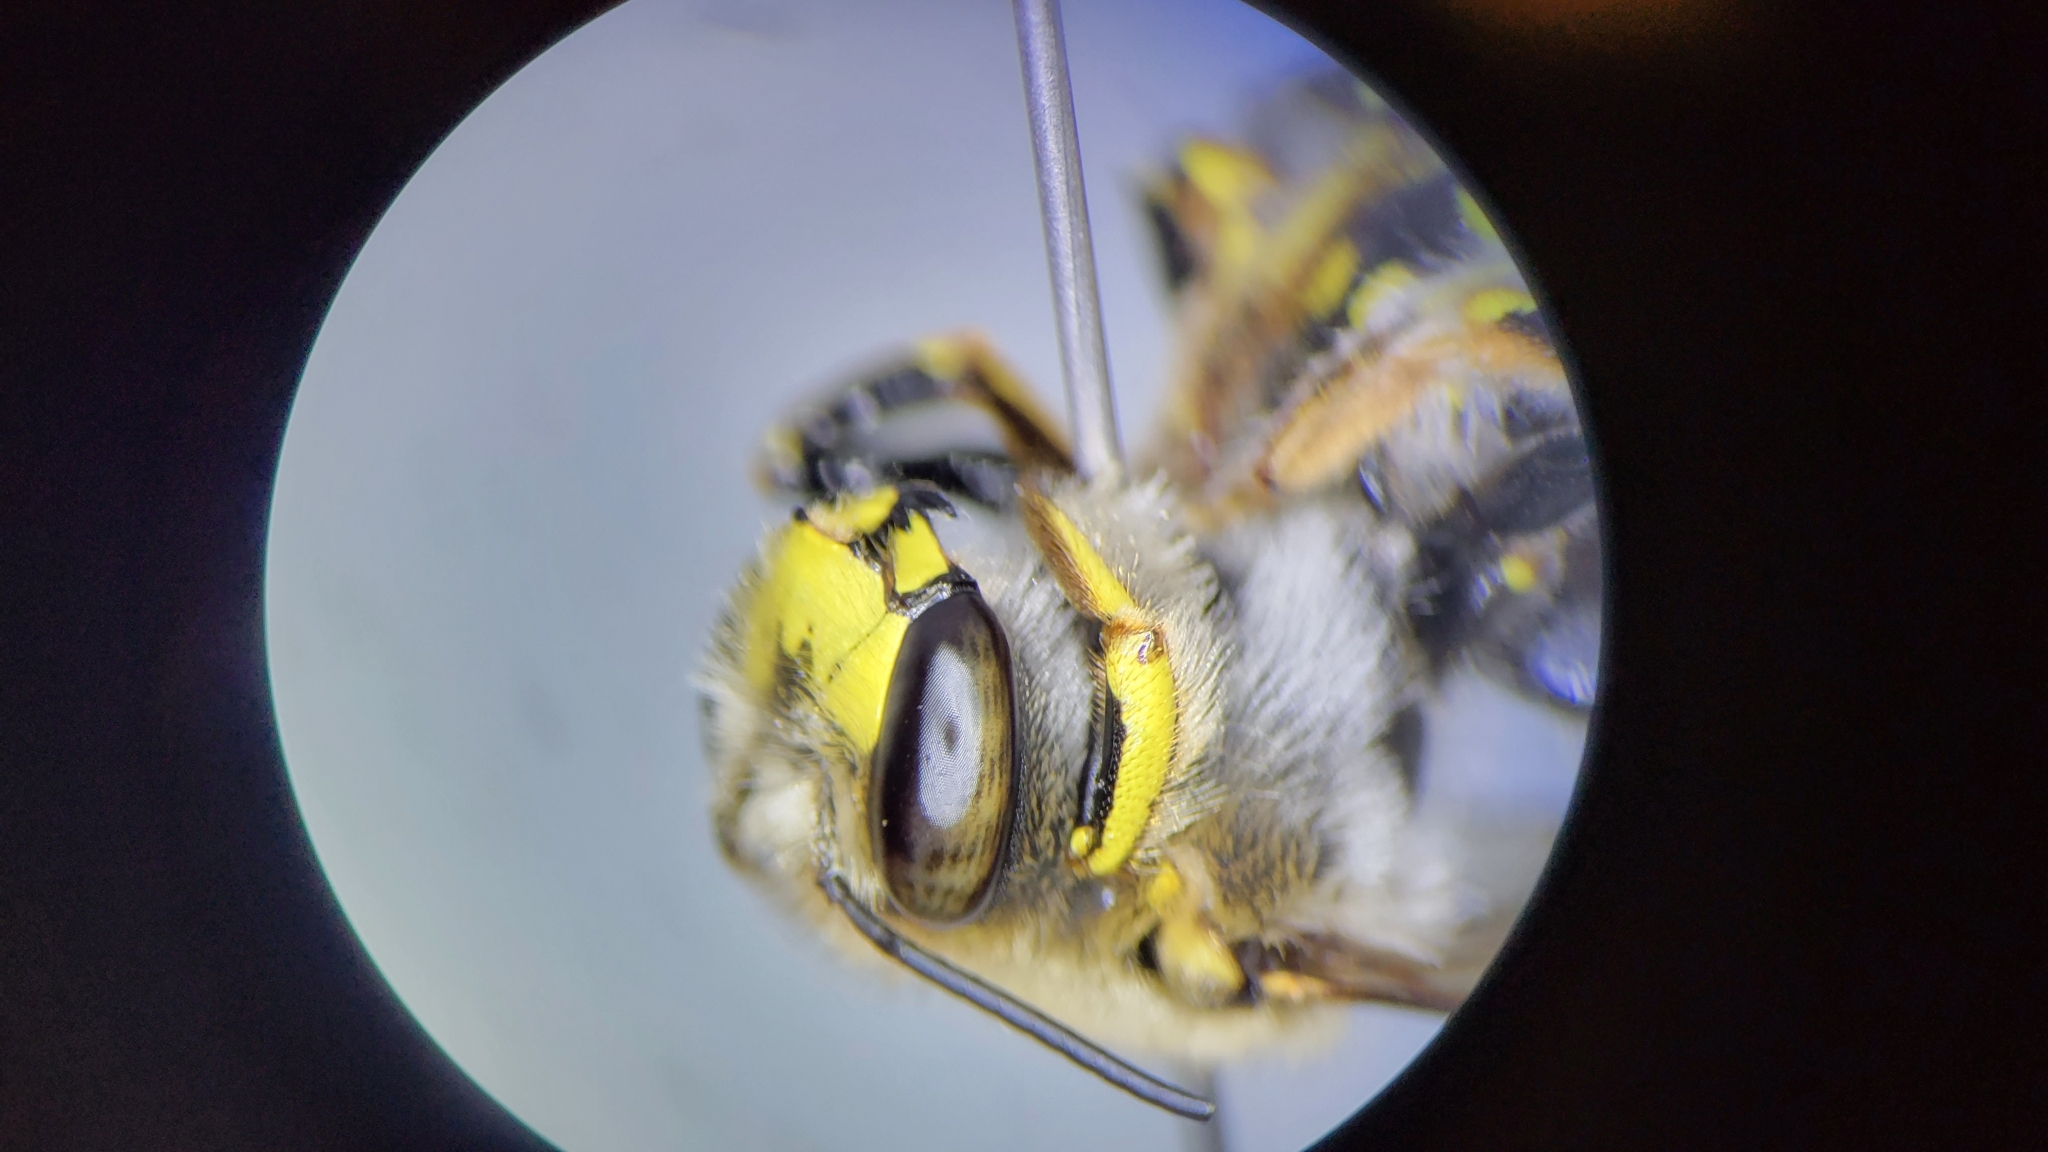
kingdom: Animalia
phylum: Arthropoda
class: Insecta
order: Hymenoptera
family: Megachilidae
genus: Anthidium
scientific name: Anthidium manicatum
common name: Wool carder bee
